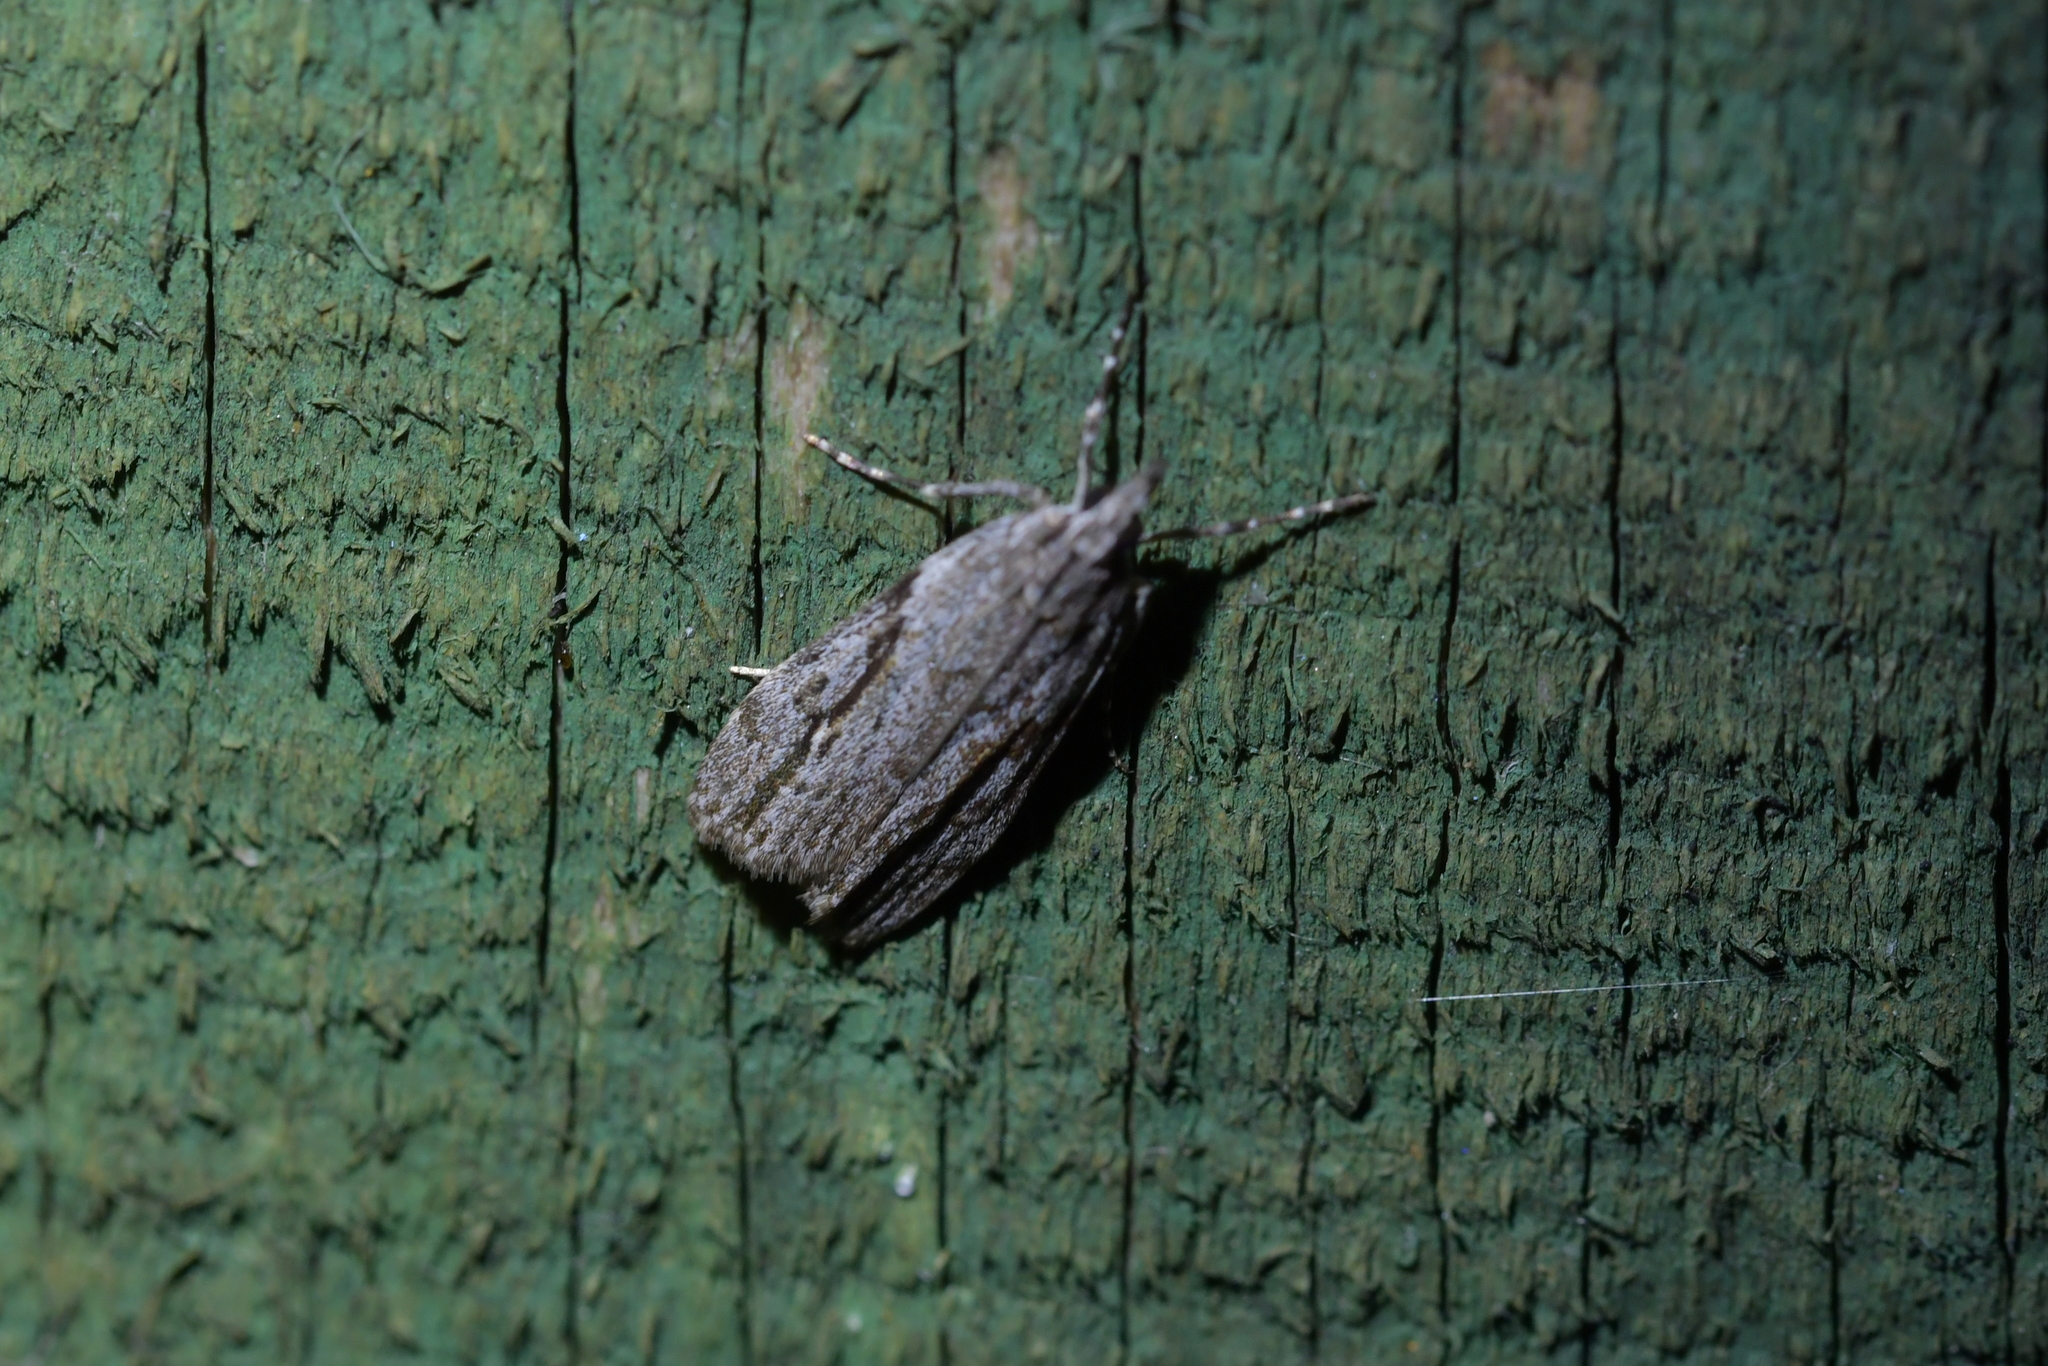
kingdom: Animalia
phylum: Arthropoda
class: Insecta
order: Lepidoptera
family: Crambidae
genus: Eudonia
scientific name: Eudonia bisinualis
